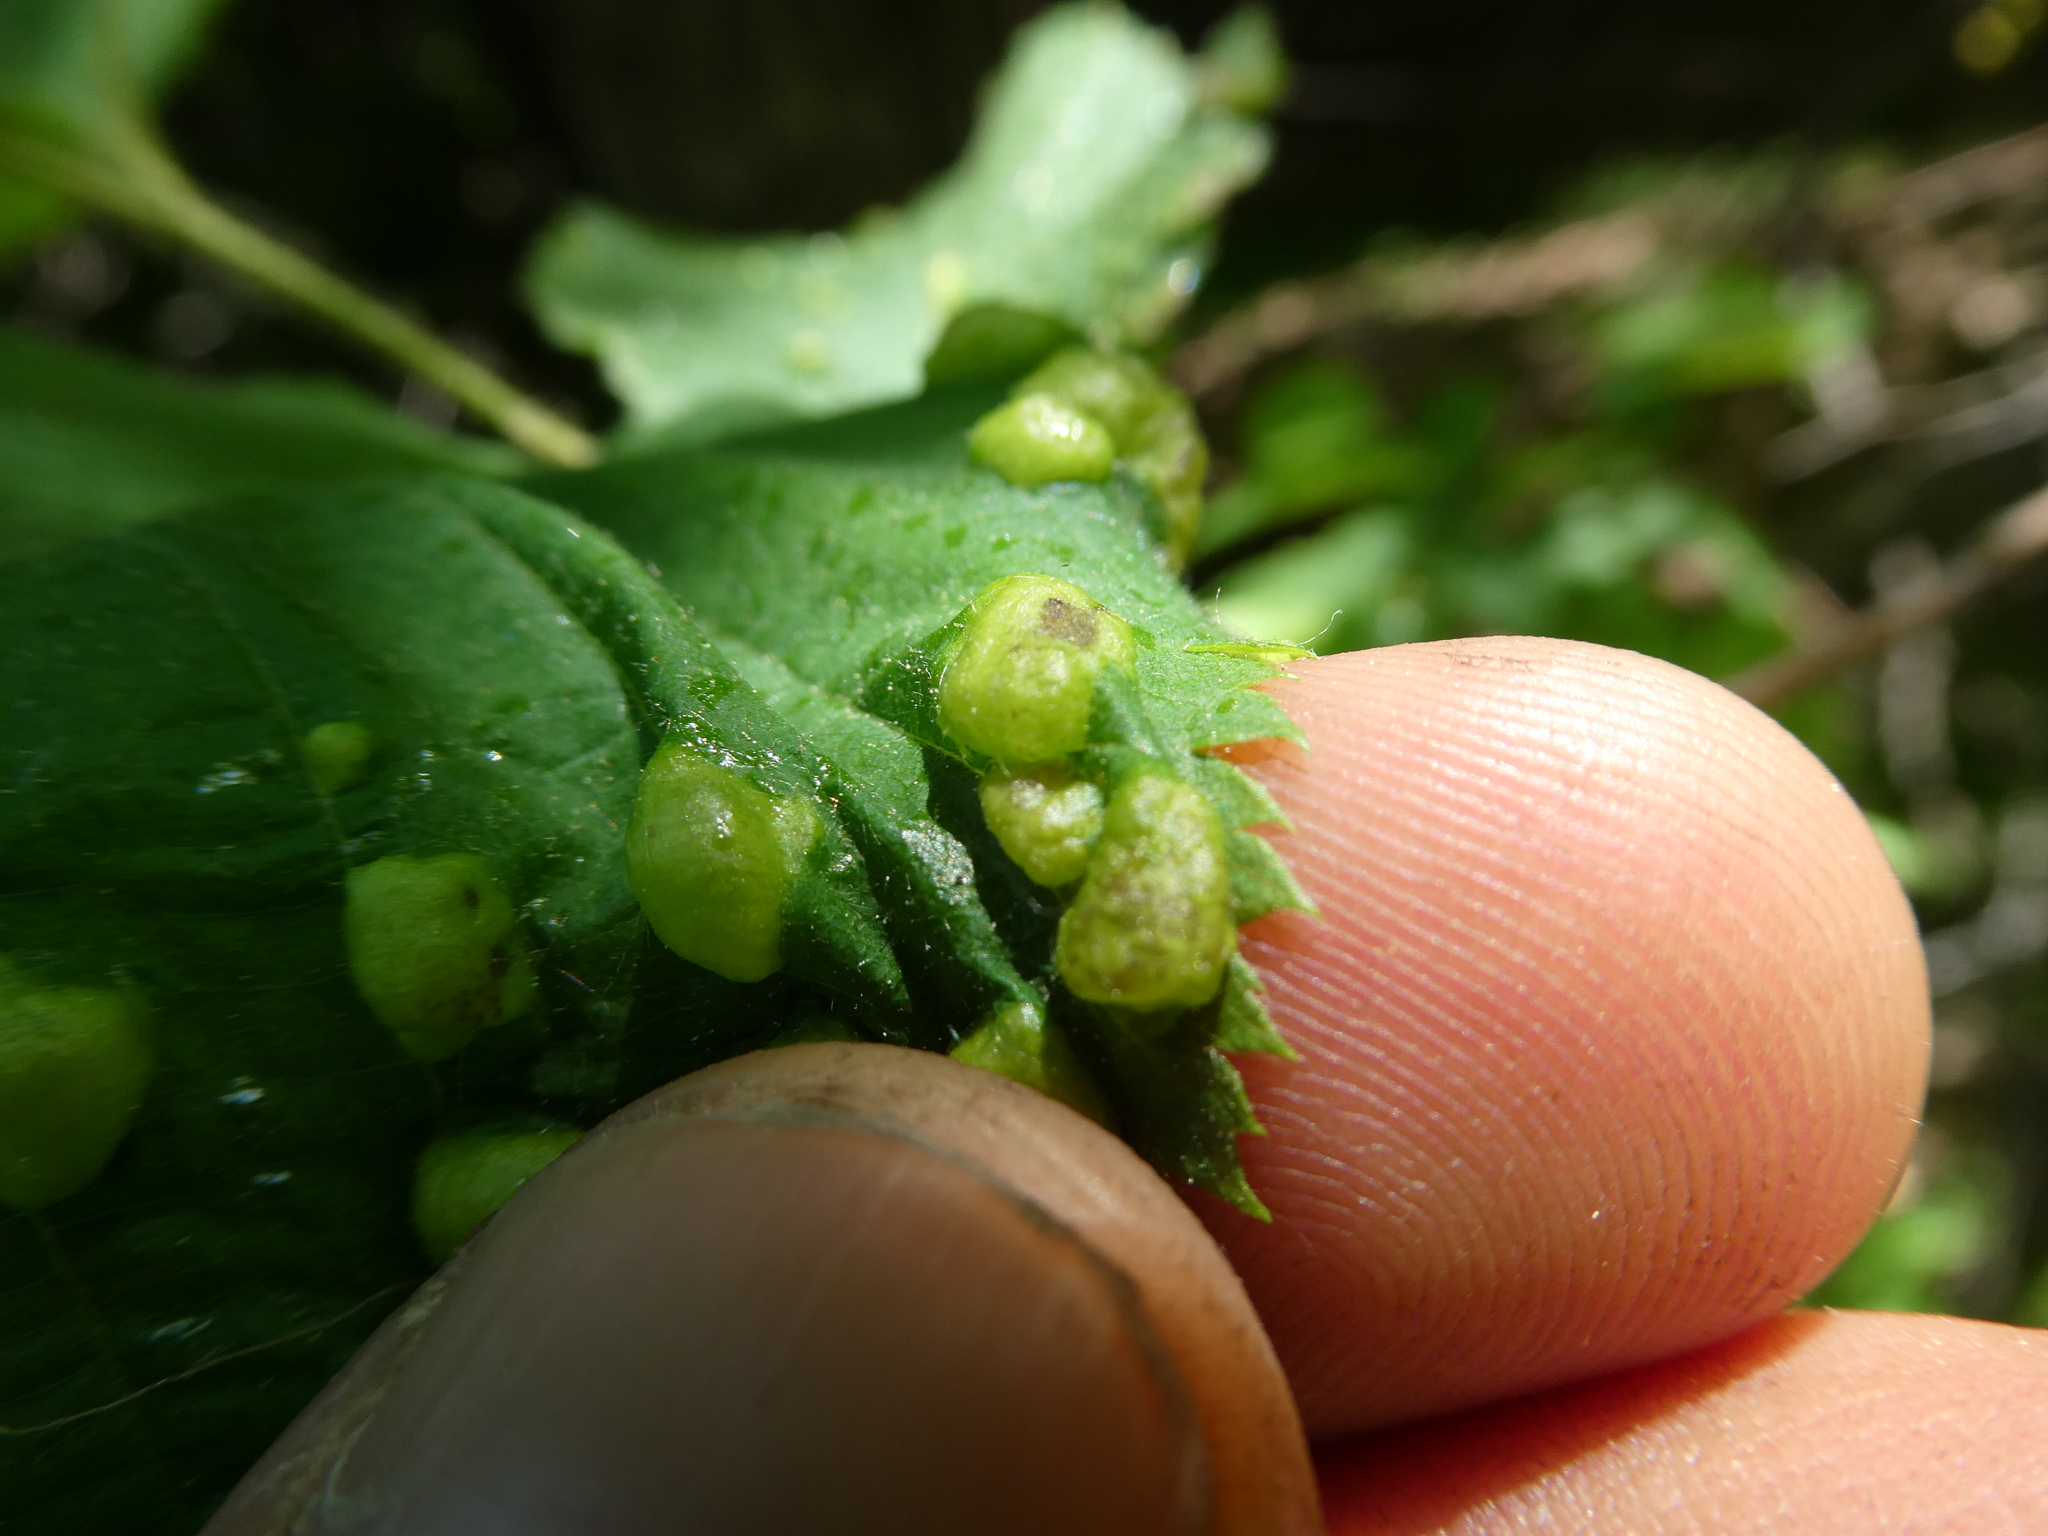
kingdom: Fungi
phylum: Ascomycota
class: Taphrinomycetes
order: Taphrinales
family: Taphrinaceae
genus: Taphrina
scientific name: Taphrina virginica
